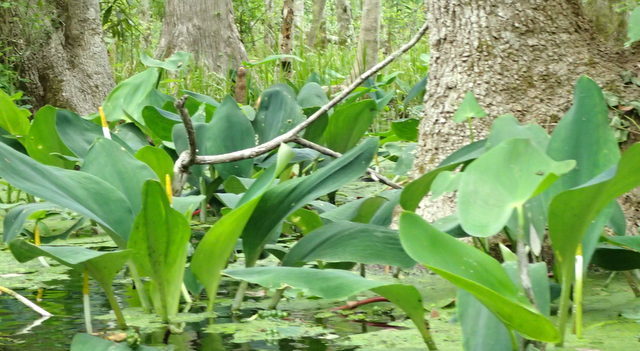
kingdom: Plantae
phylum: Tracheophyta
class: Liliopsida
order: Alismatales
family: Araceae
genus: Orontium
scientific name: Orontium aquaticum
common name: Golden-club
